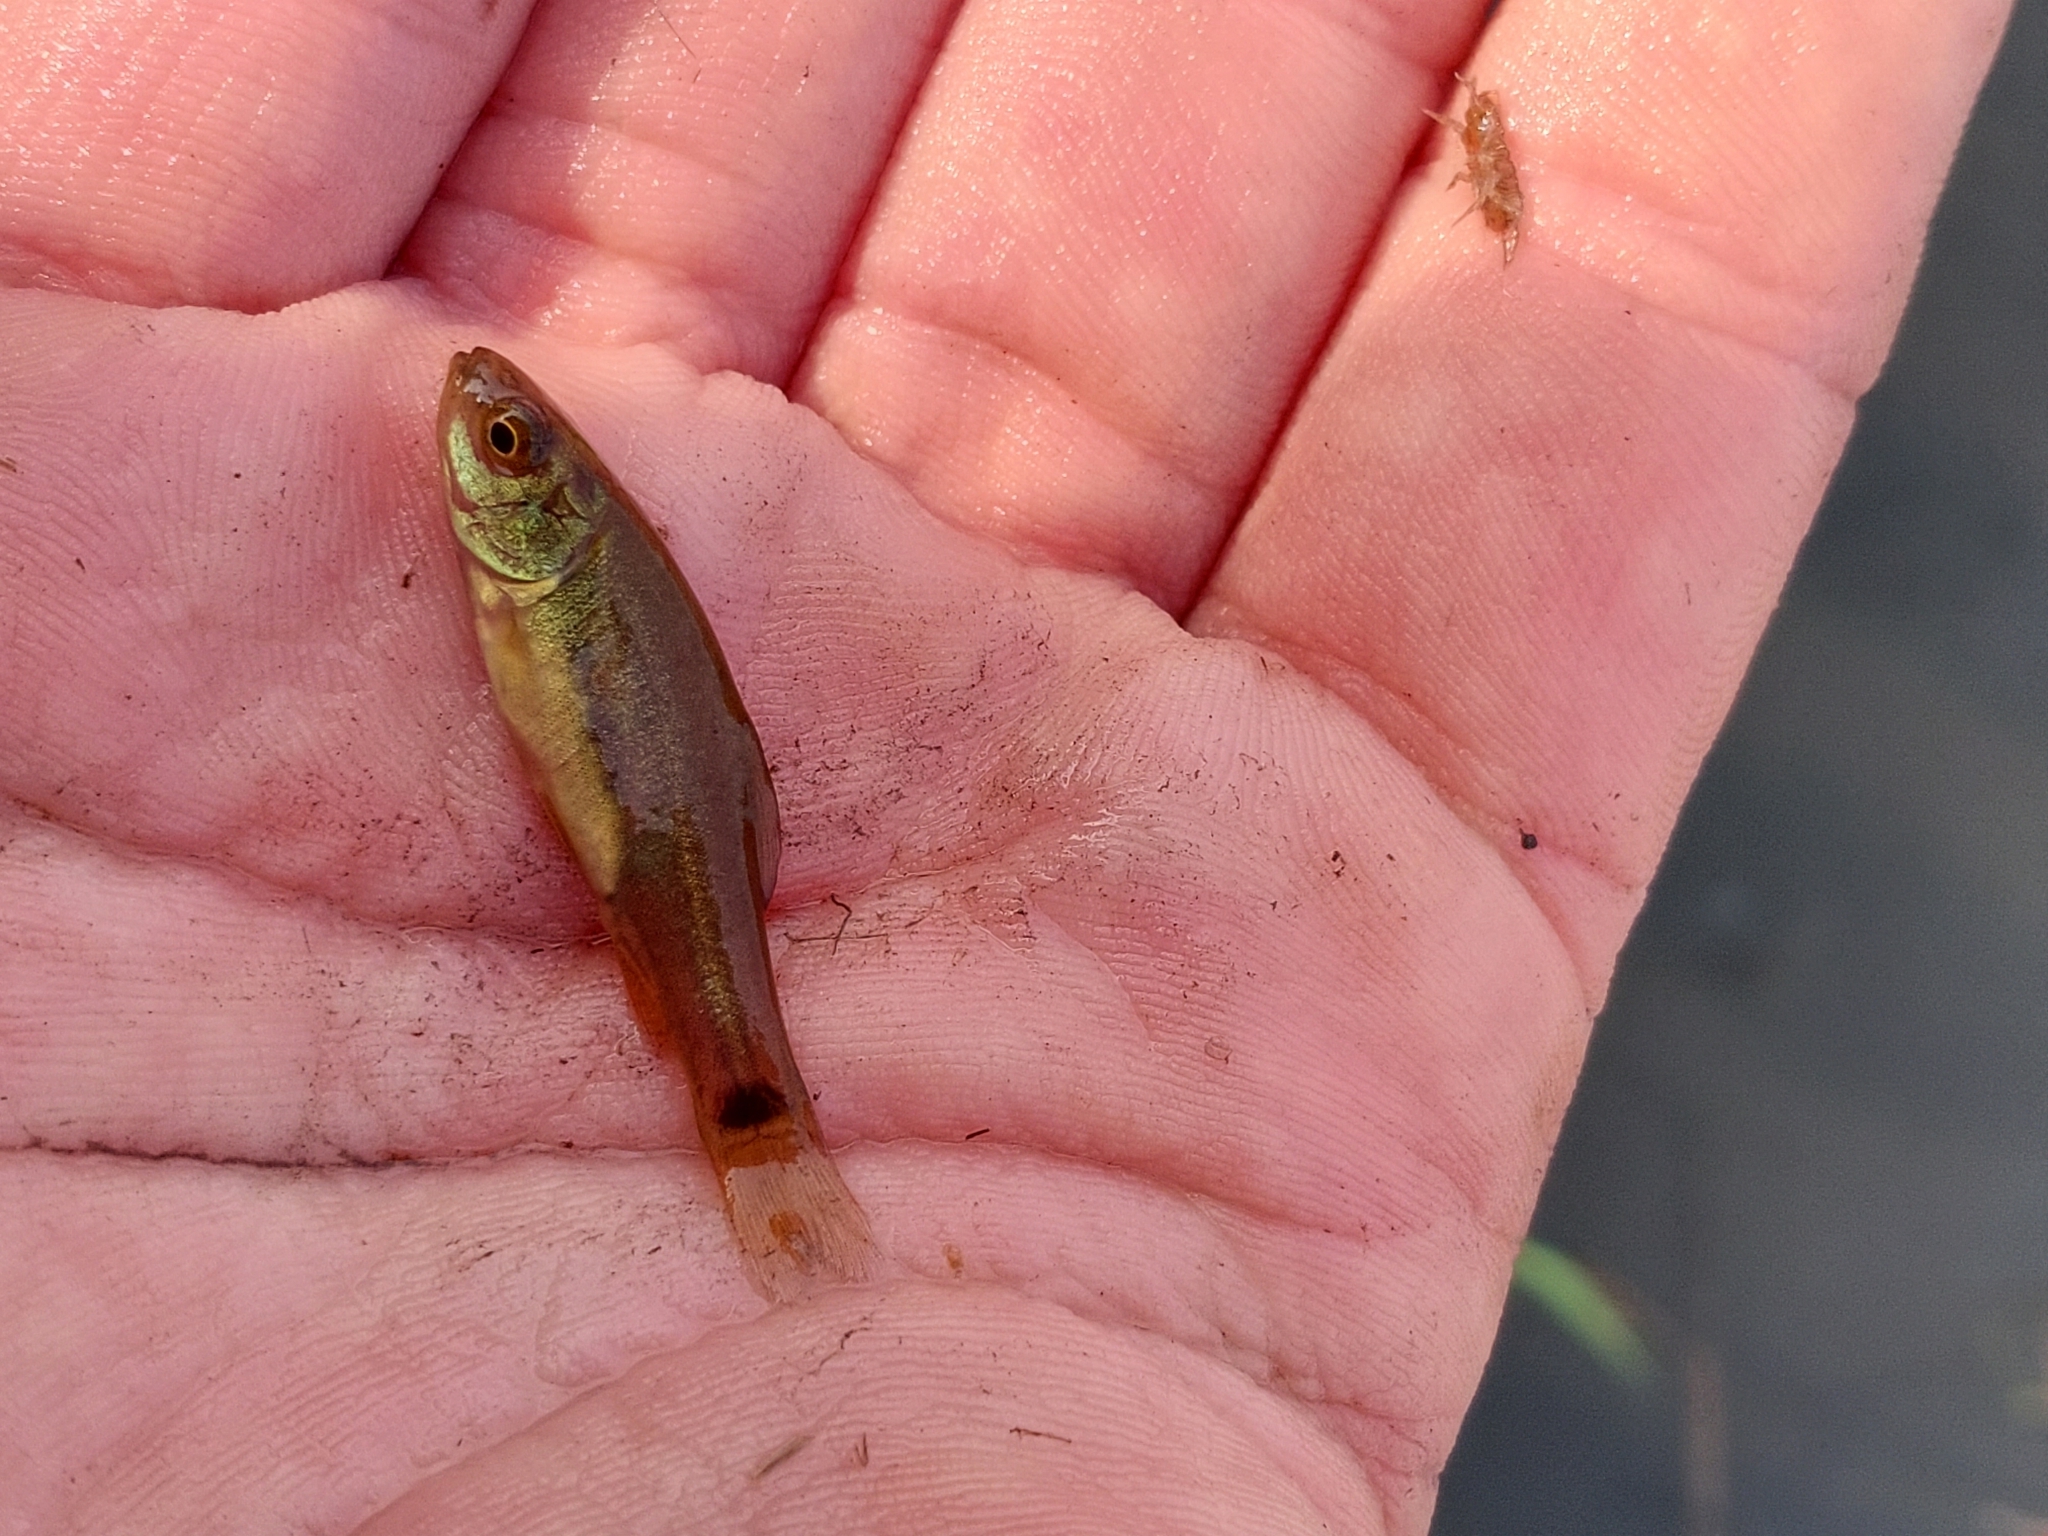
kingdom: Animalia
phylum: Chordata
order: Cypriniformes
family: Cyprinidae
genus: Tinca
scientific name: Tinca tinca
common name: Tench
